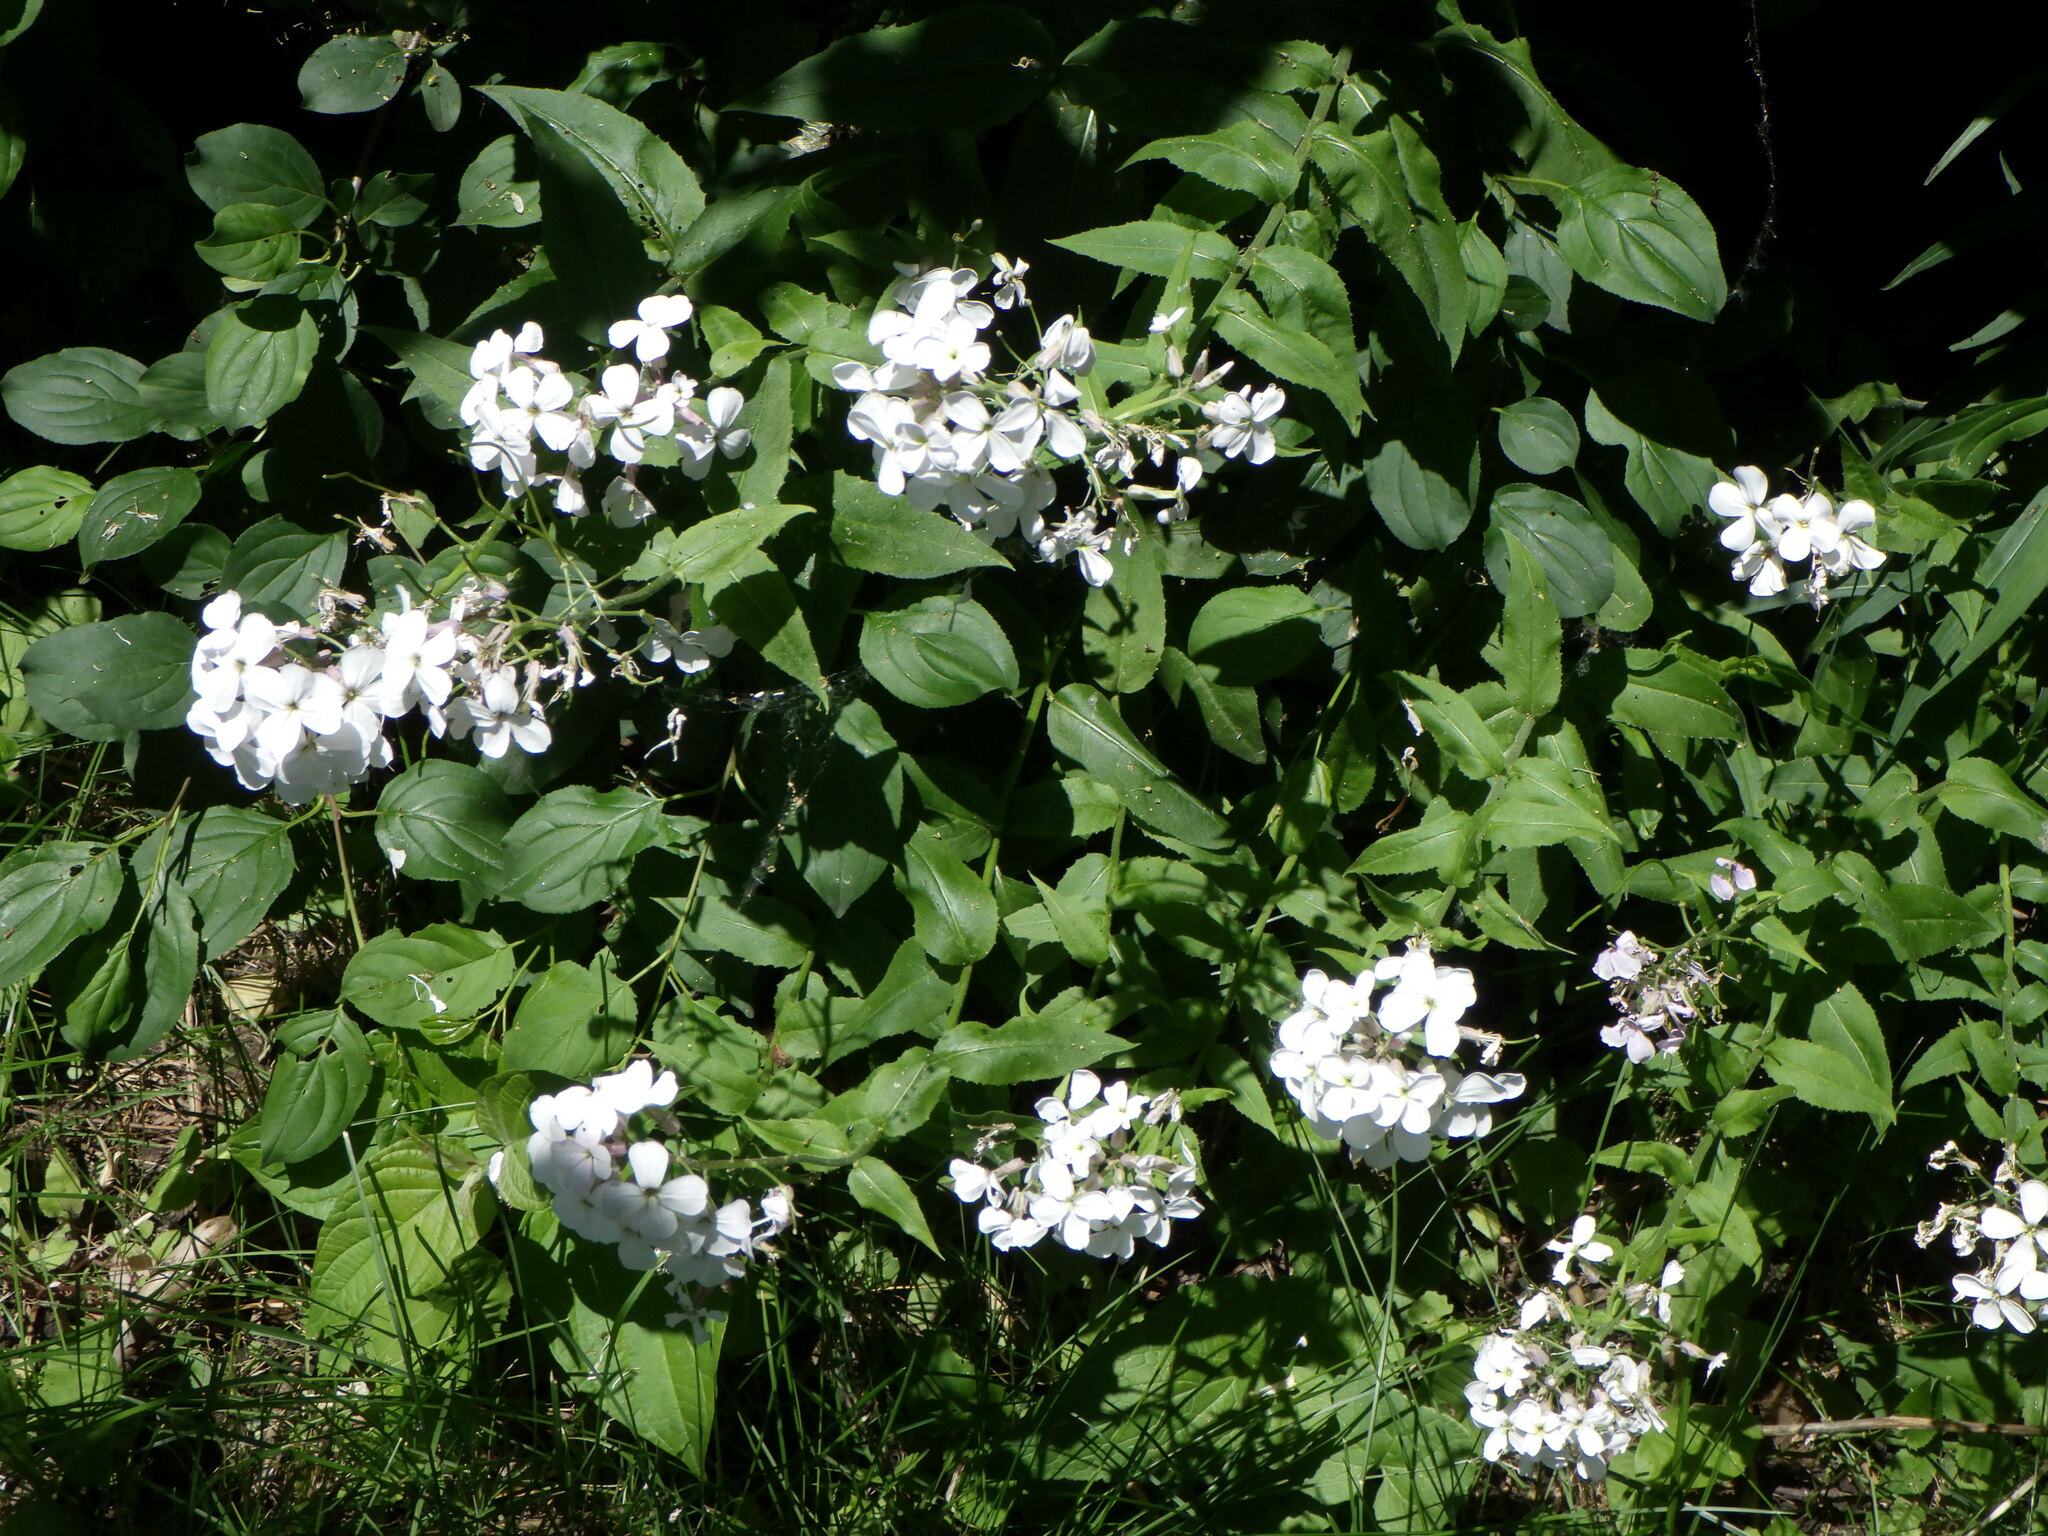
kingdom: Plantae
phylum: Tracheophyta
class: Magnoliopsida
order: Brassicales
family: Brassicaceae
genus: Hesperis
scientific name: Hesperis matronalis
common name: Dame's-violet
